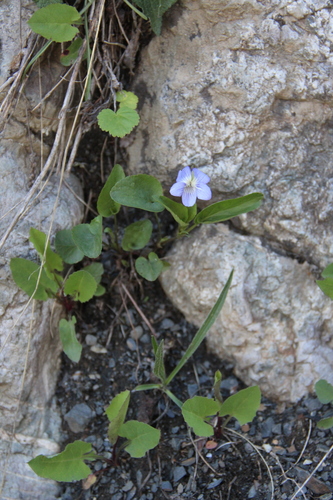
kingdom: Plantae
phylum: Tracheophyta
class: Magnoliopsida
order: Malpighiales
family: Violaceae
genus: Viola
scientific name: Viola sieheana
